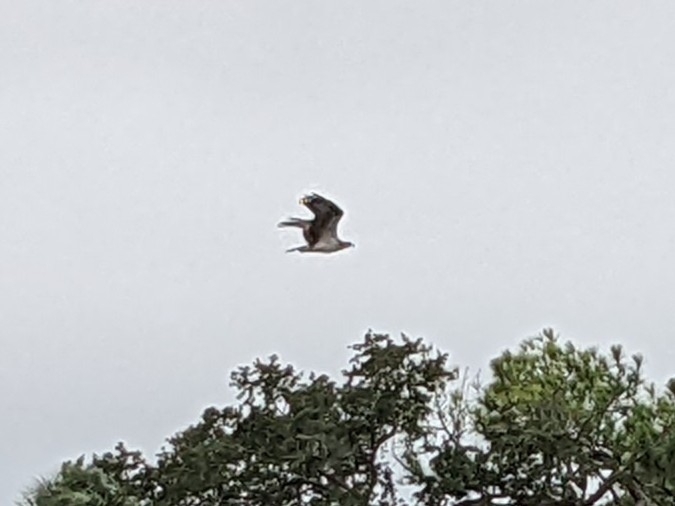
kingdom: Animalia
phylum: Chordata
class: Aves
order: Accipitriformes
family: Pandionidae
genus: Pandion
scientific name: Pandion haliaetus
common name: Osprey
